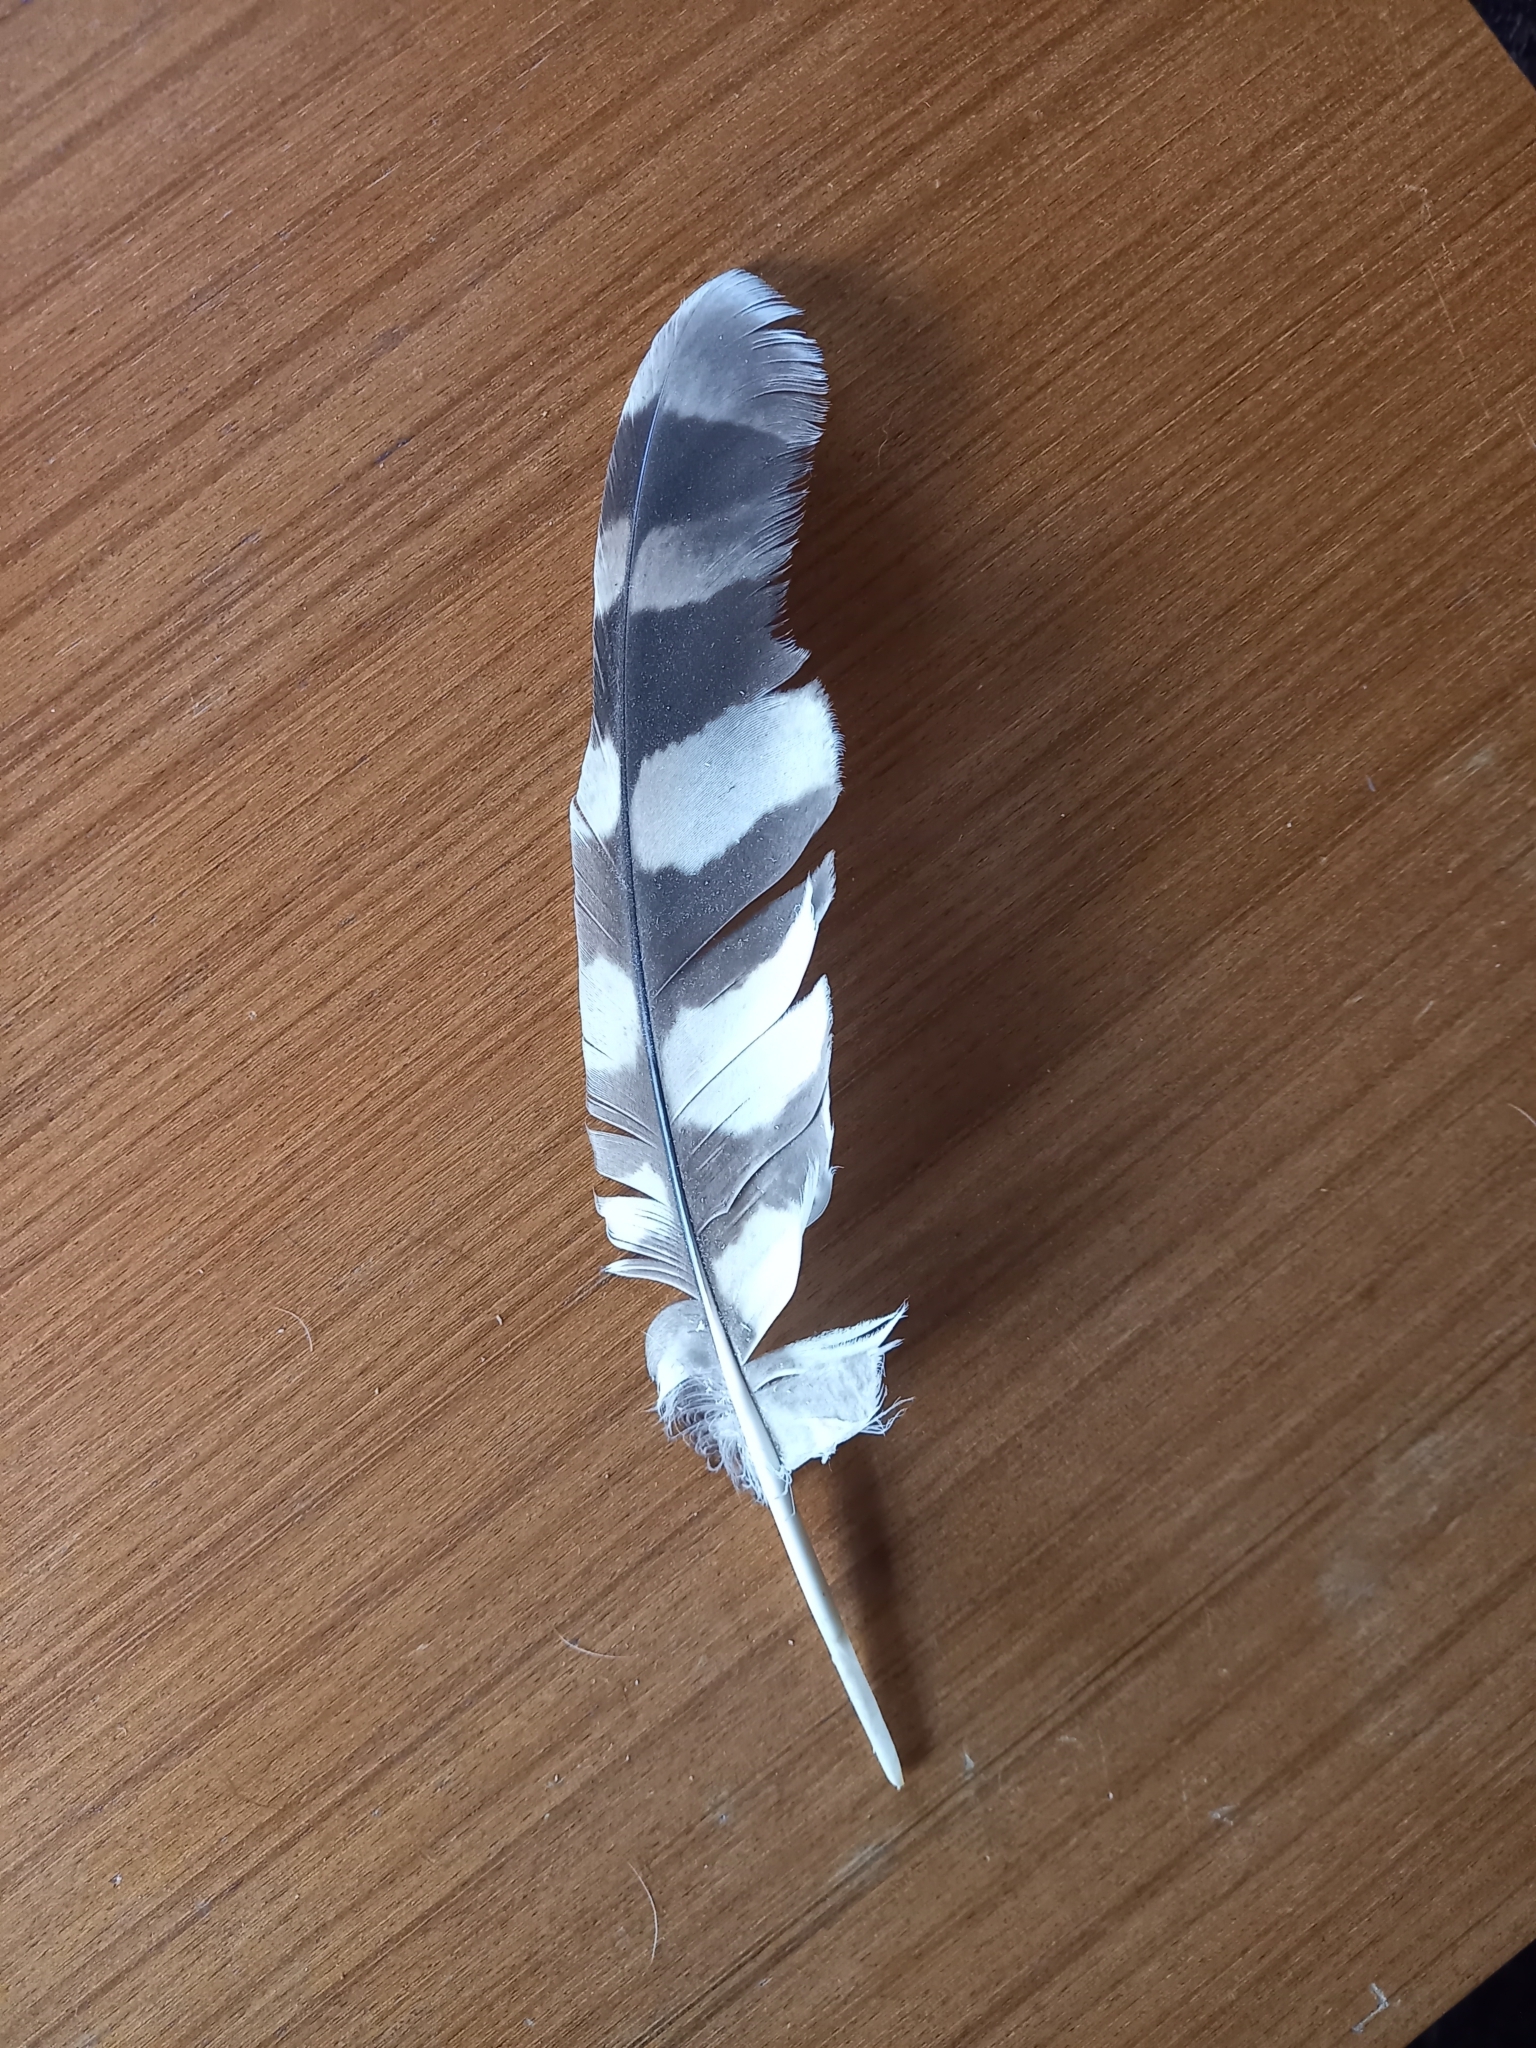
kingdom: Animalia
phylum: Chordata
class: Aves
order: Strigiformes
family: Strigidae
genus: Strix
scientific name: Strix uralensis
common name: Ural owl
